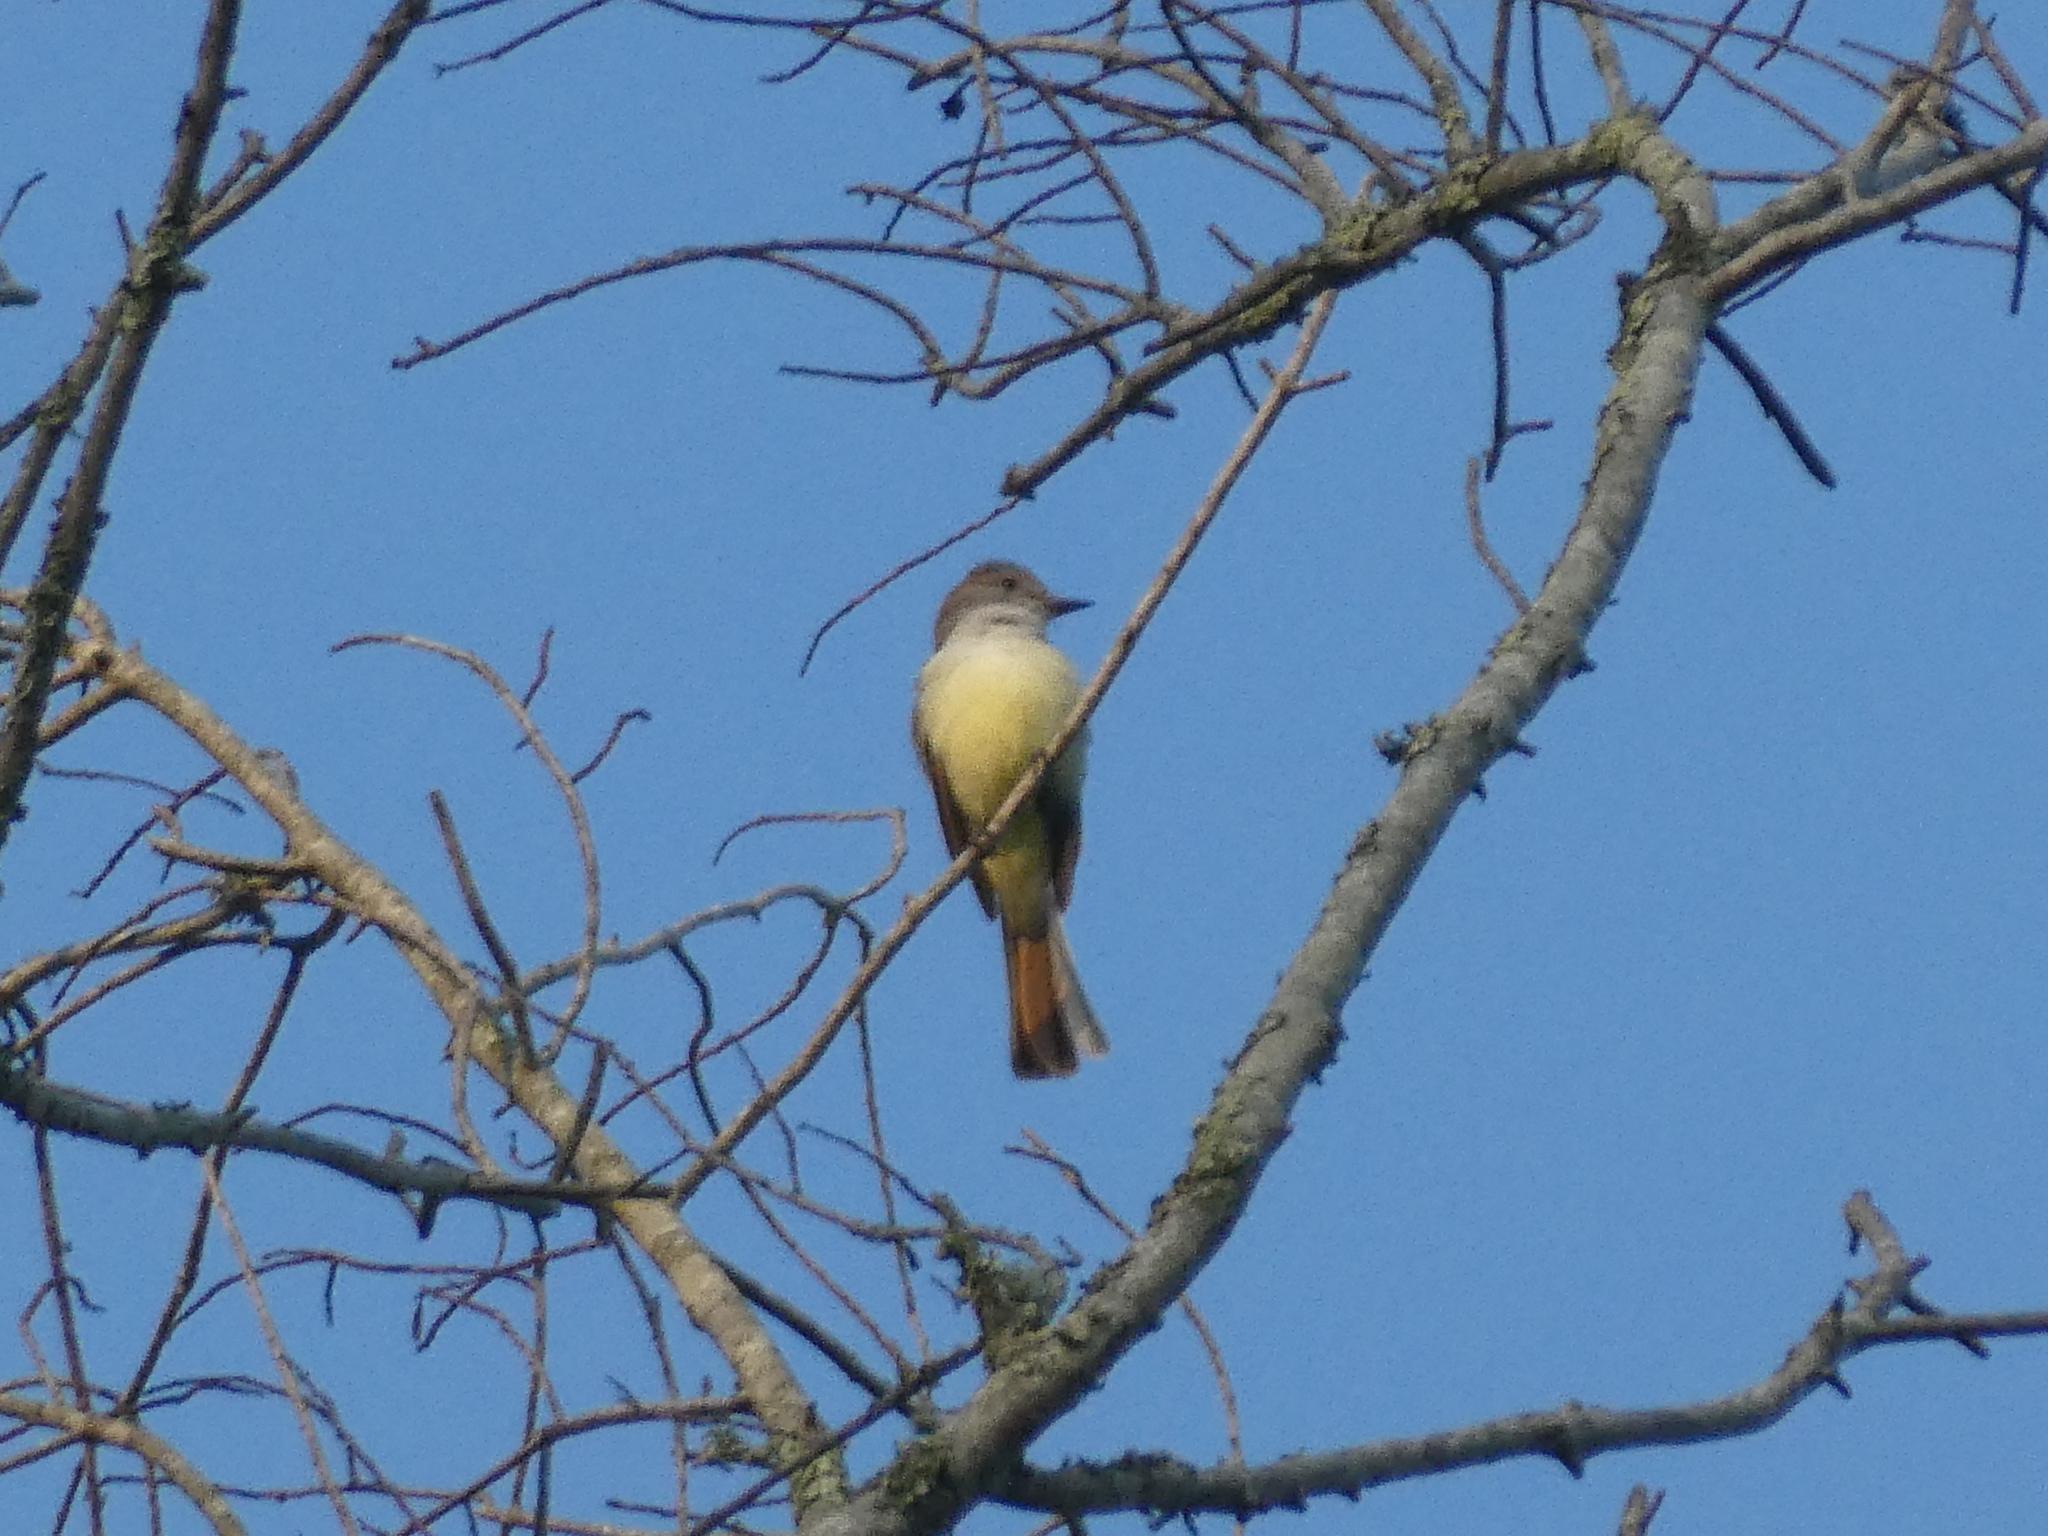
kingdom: Animalia
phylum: Chordata
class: Aves
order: Passeriformes
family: Tyrannidae
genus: Myiarchus
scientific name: Myiarchus cinerascens
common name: Ash-throated flycatcher
